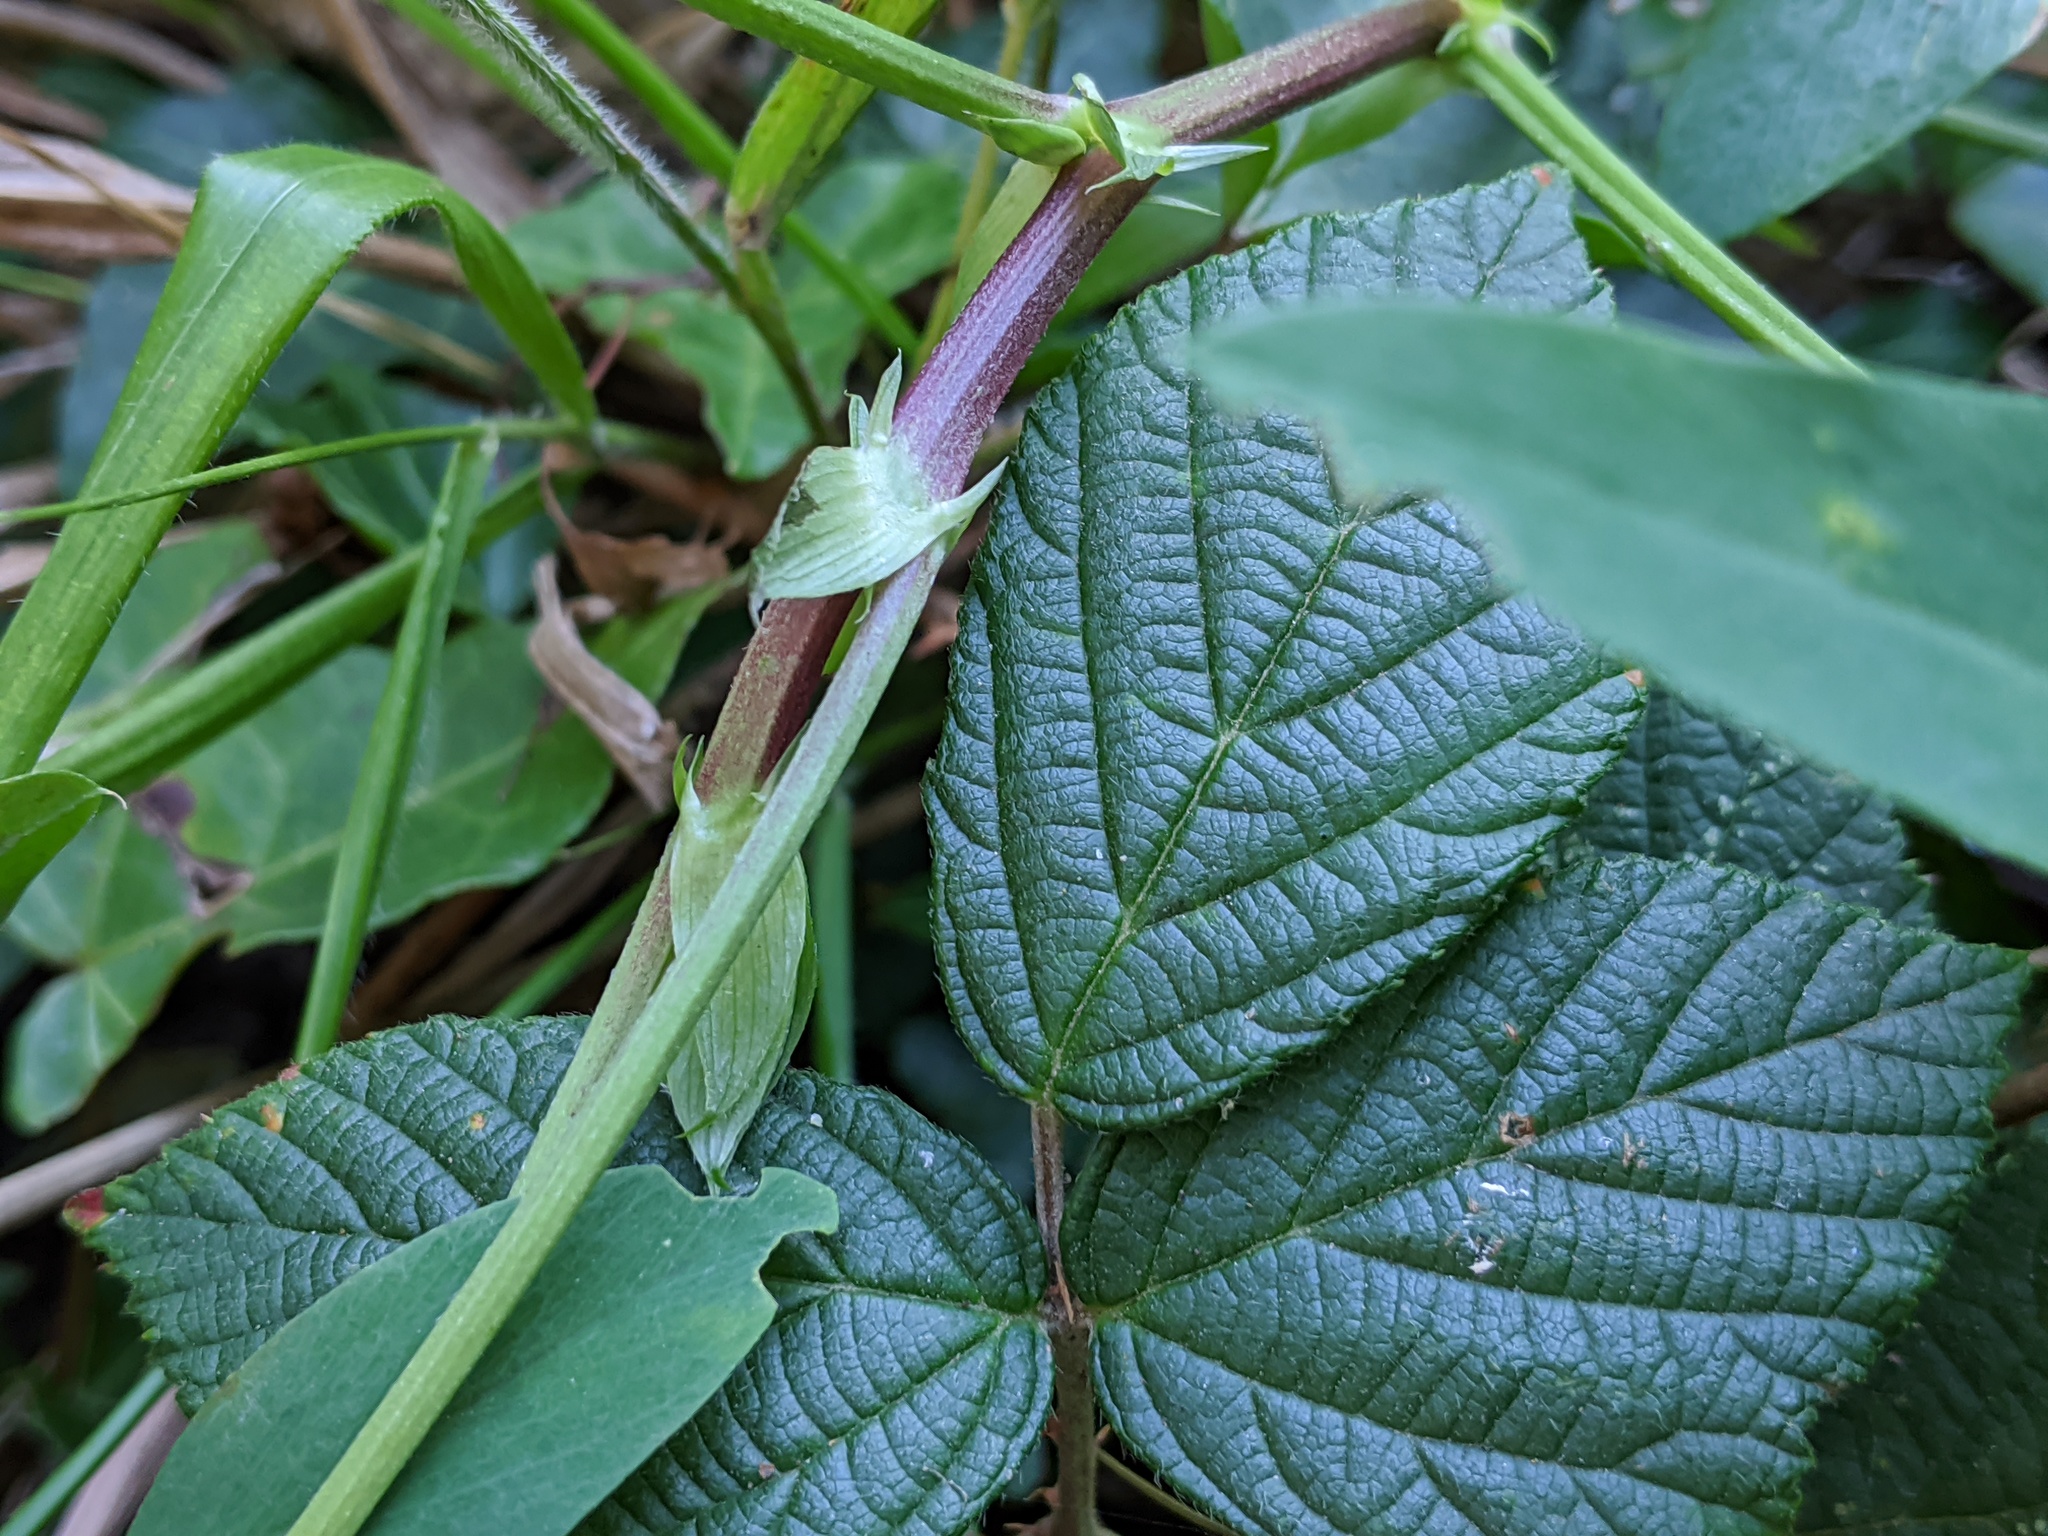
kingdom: Plantae
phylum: Tracheophyta
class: Magnoliopsida
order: Fabales
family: Fabaceae
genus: Galega
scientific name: Galega officinalis
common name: Goat's-rue
